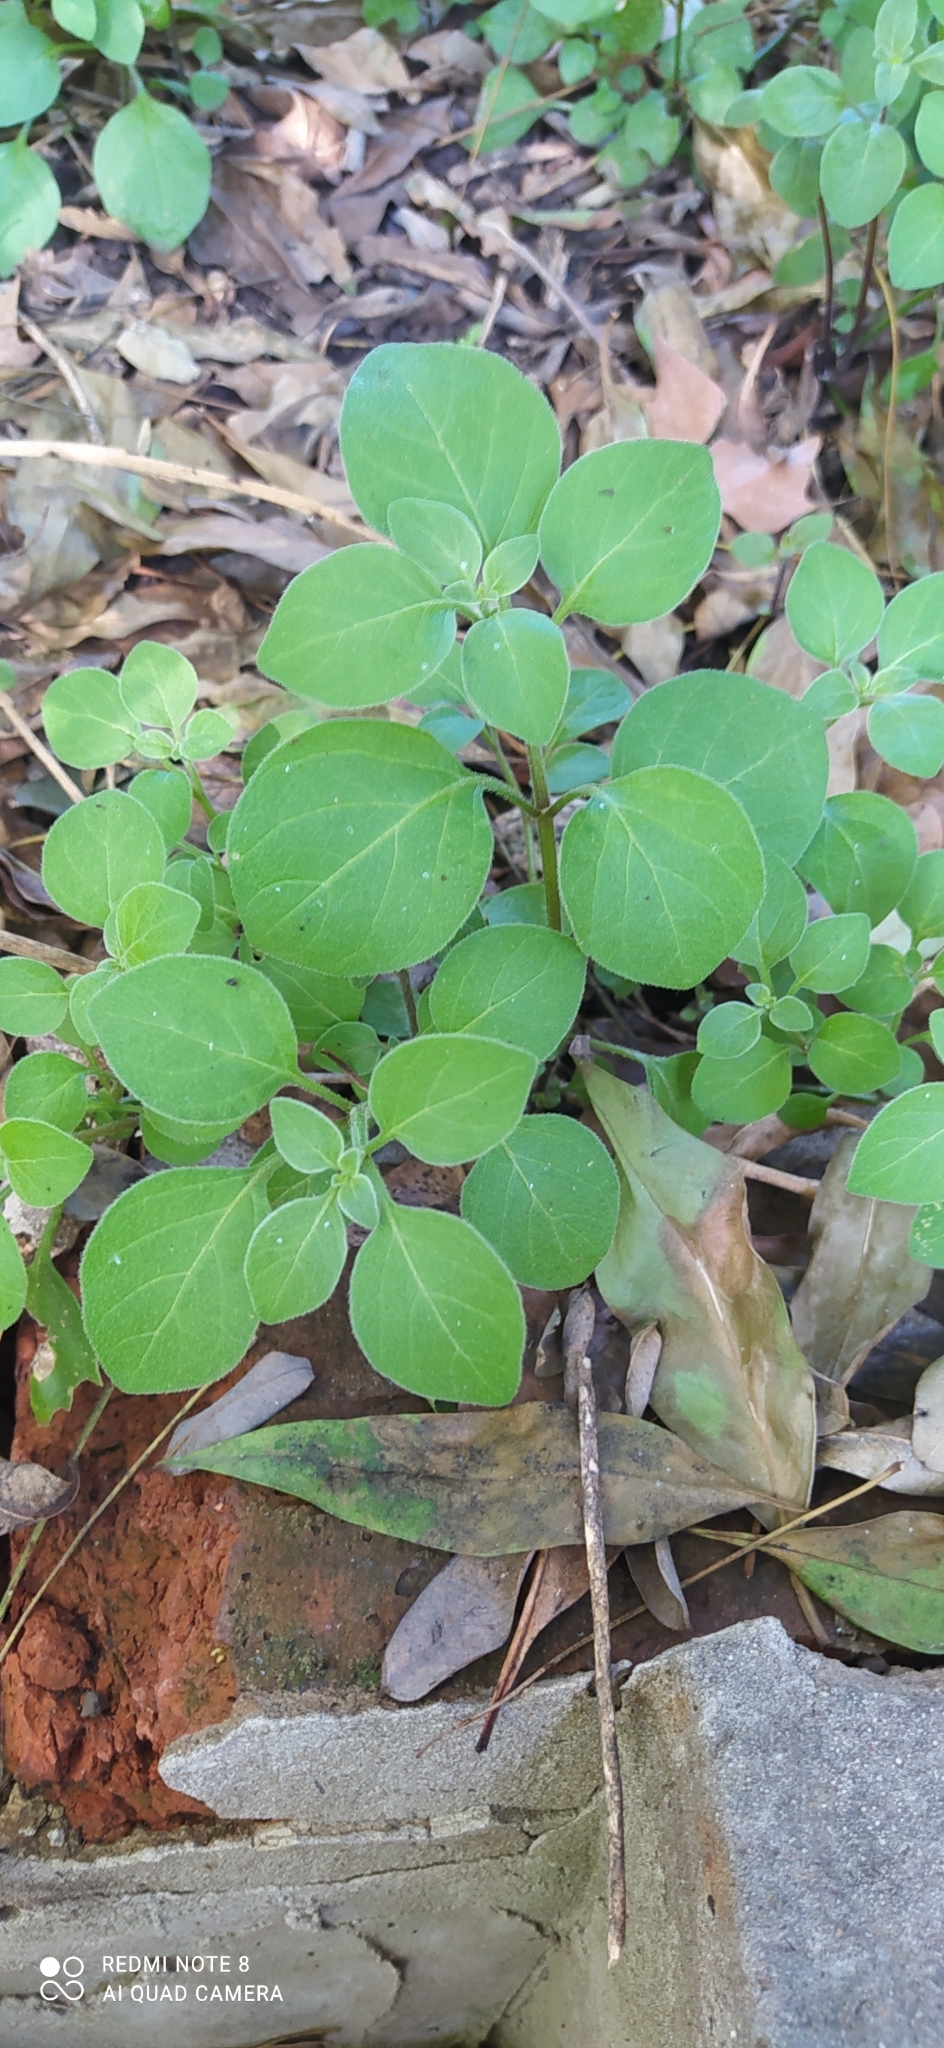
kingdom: Plantae
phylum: Tracheophyta
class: Magnoliopsida
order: Solanales
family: Solanaceae
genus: Salpichroa
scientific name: Salpichroa origanifolia
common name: Lily-of-the-valley-vine
